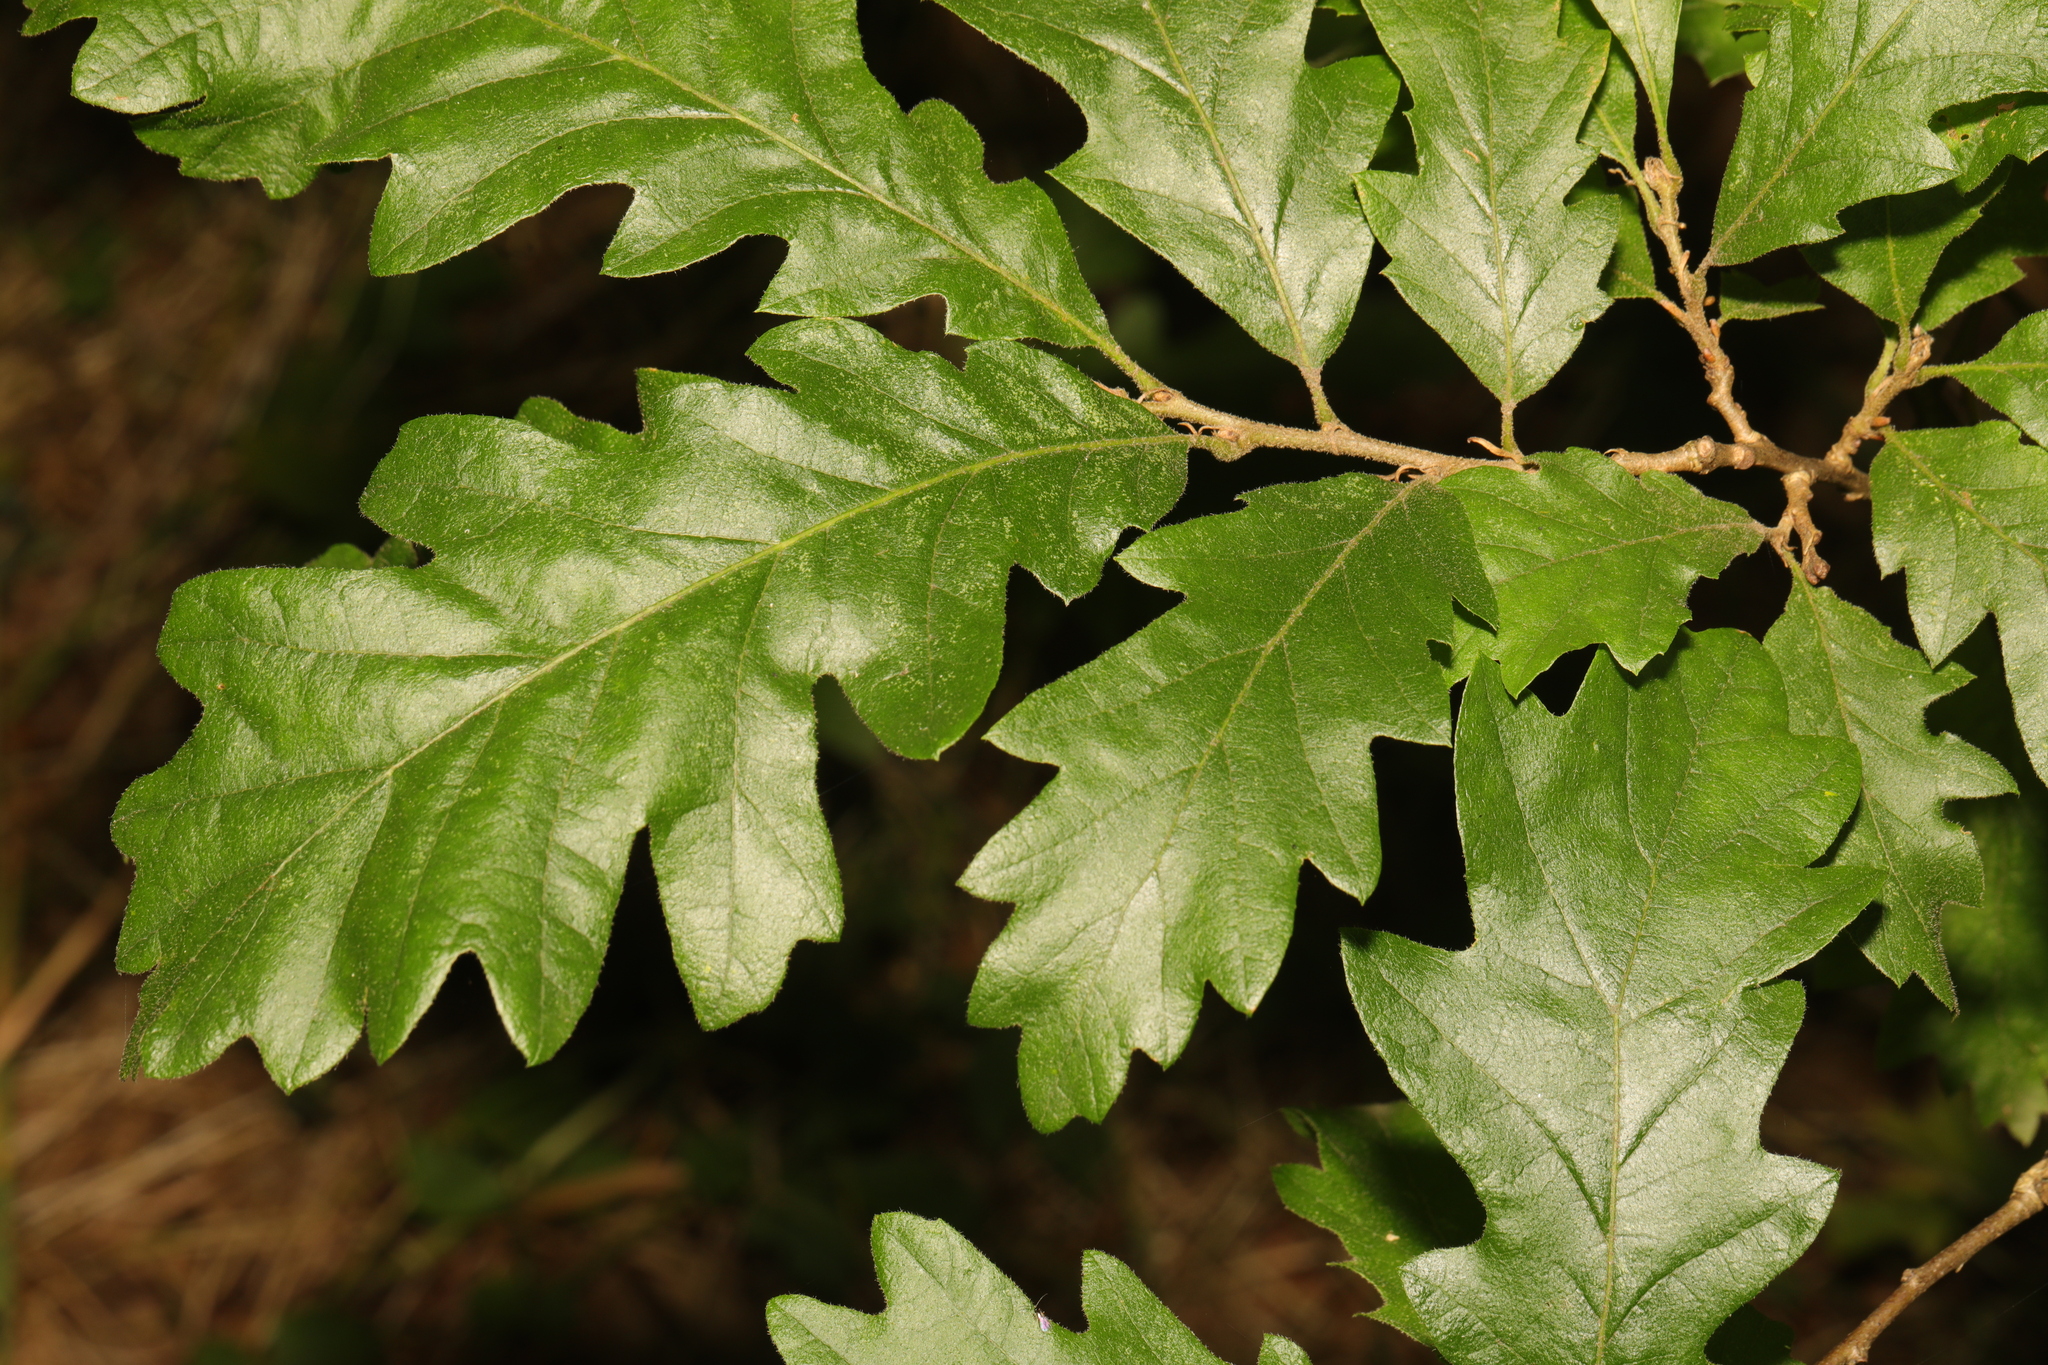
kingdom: Plantae
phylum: Tracheophyta
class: Magnoliopsida
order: Fagales
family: Fagaceae
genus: Quercus
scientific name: Quercus cerris
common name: Turkey oak
